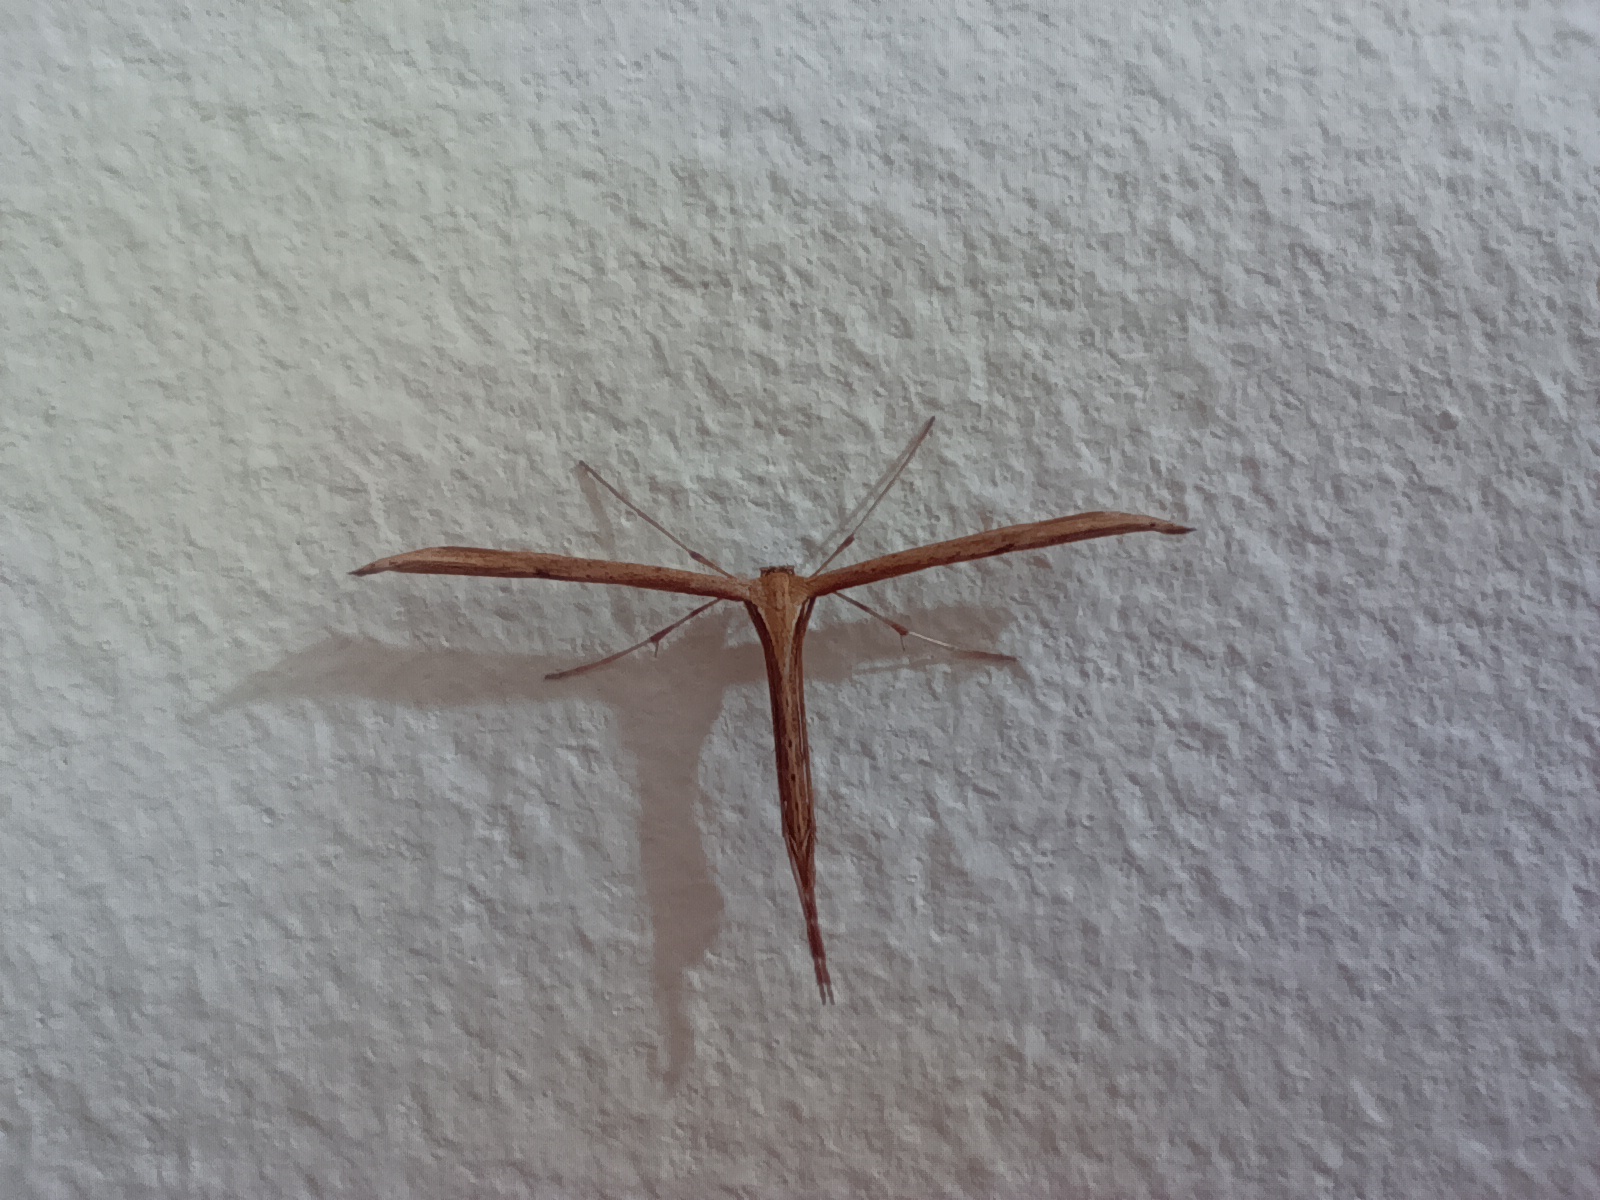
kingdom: Animalia
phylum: Arthropoda
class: Insecta
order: Lepidoptera
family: Pterophoridae
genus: Emmelina
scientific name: Emmelina monodactyla
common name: Common plume
